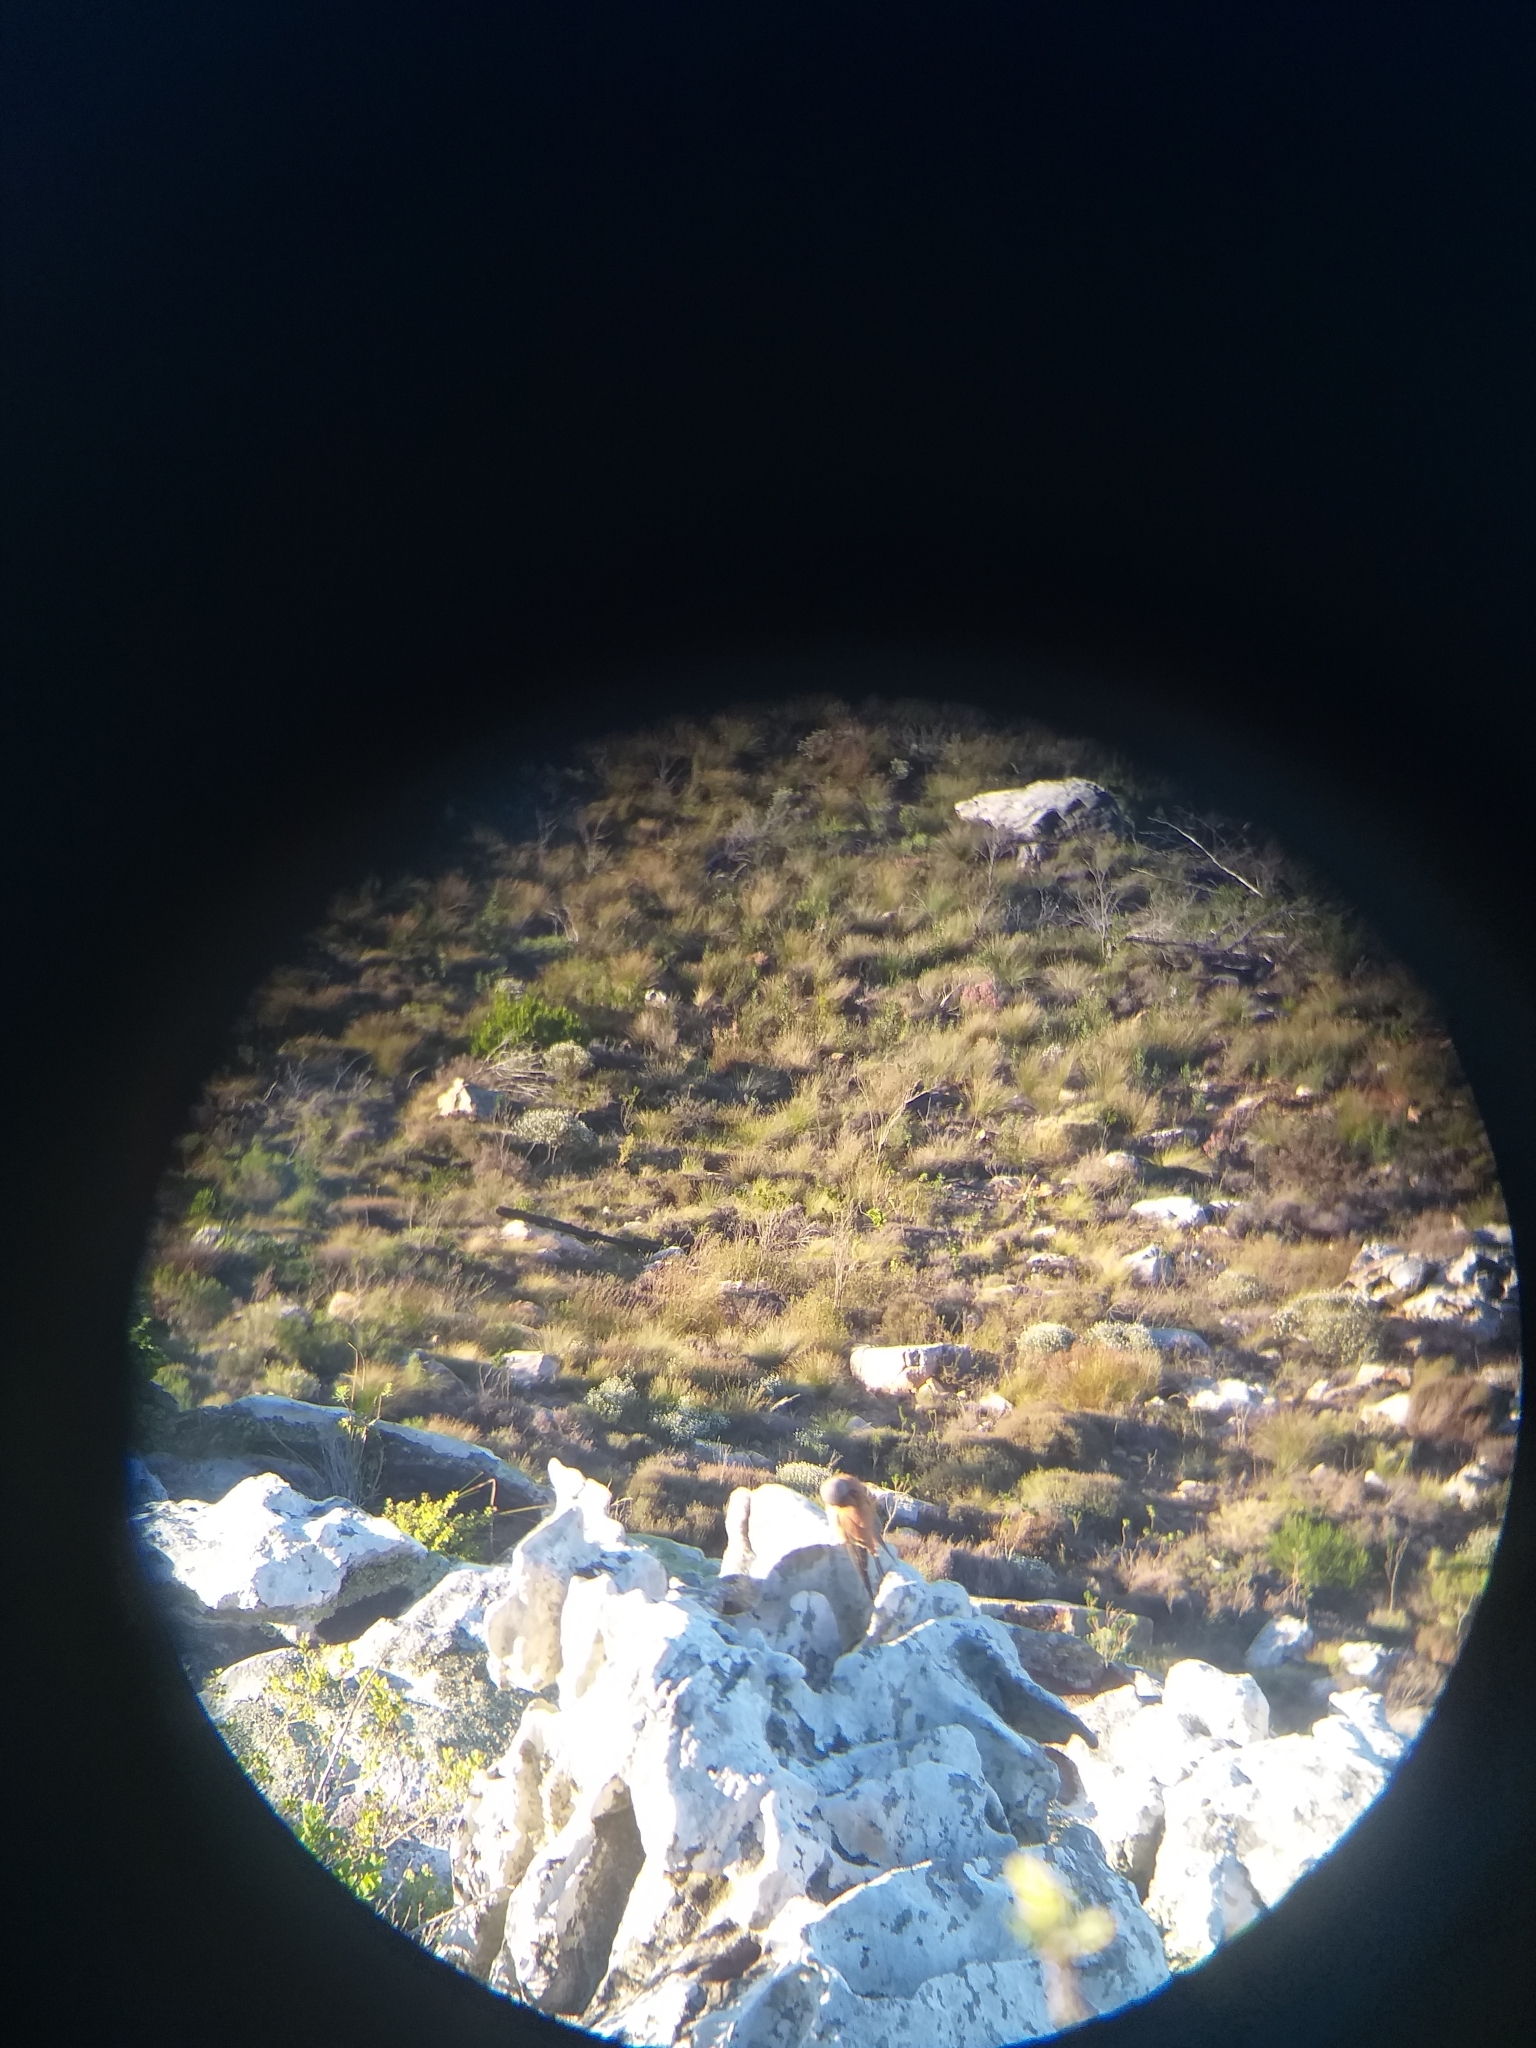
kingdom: Animalia
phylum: Chordata
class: Aves
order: Falconiformes
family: Falconidae
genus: Falco
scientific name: Falco rupicolus
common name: Rock kestrel
